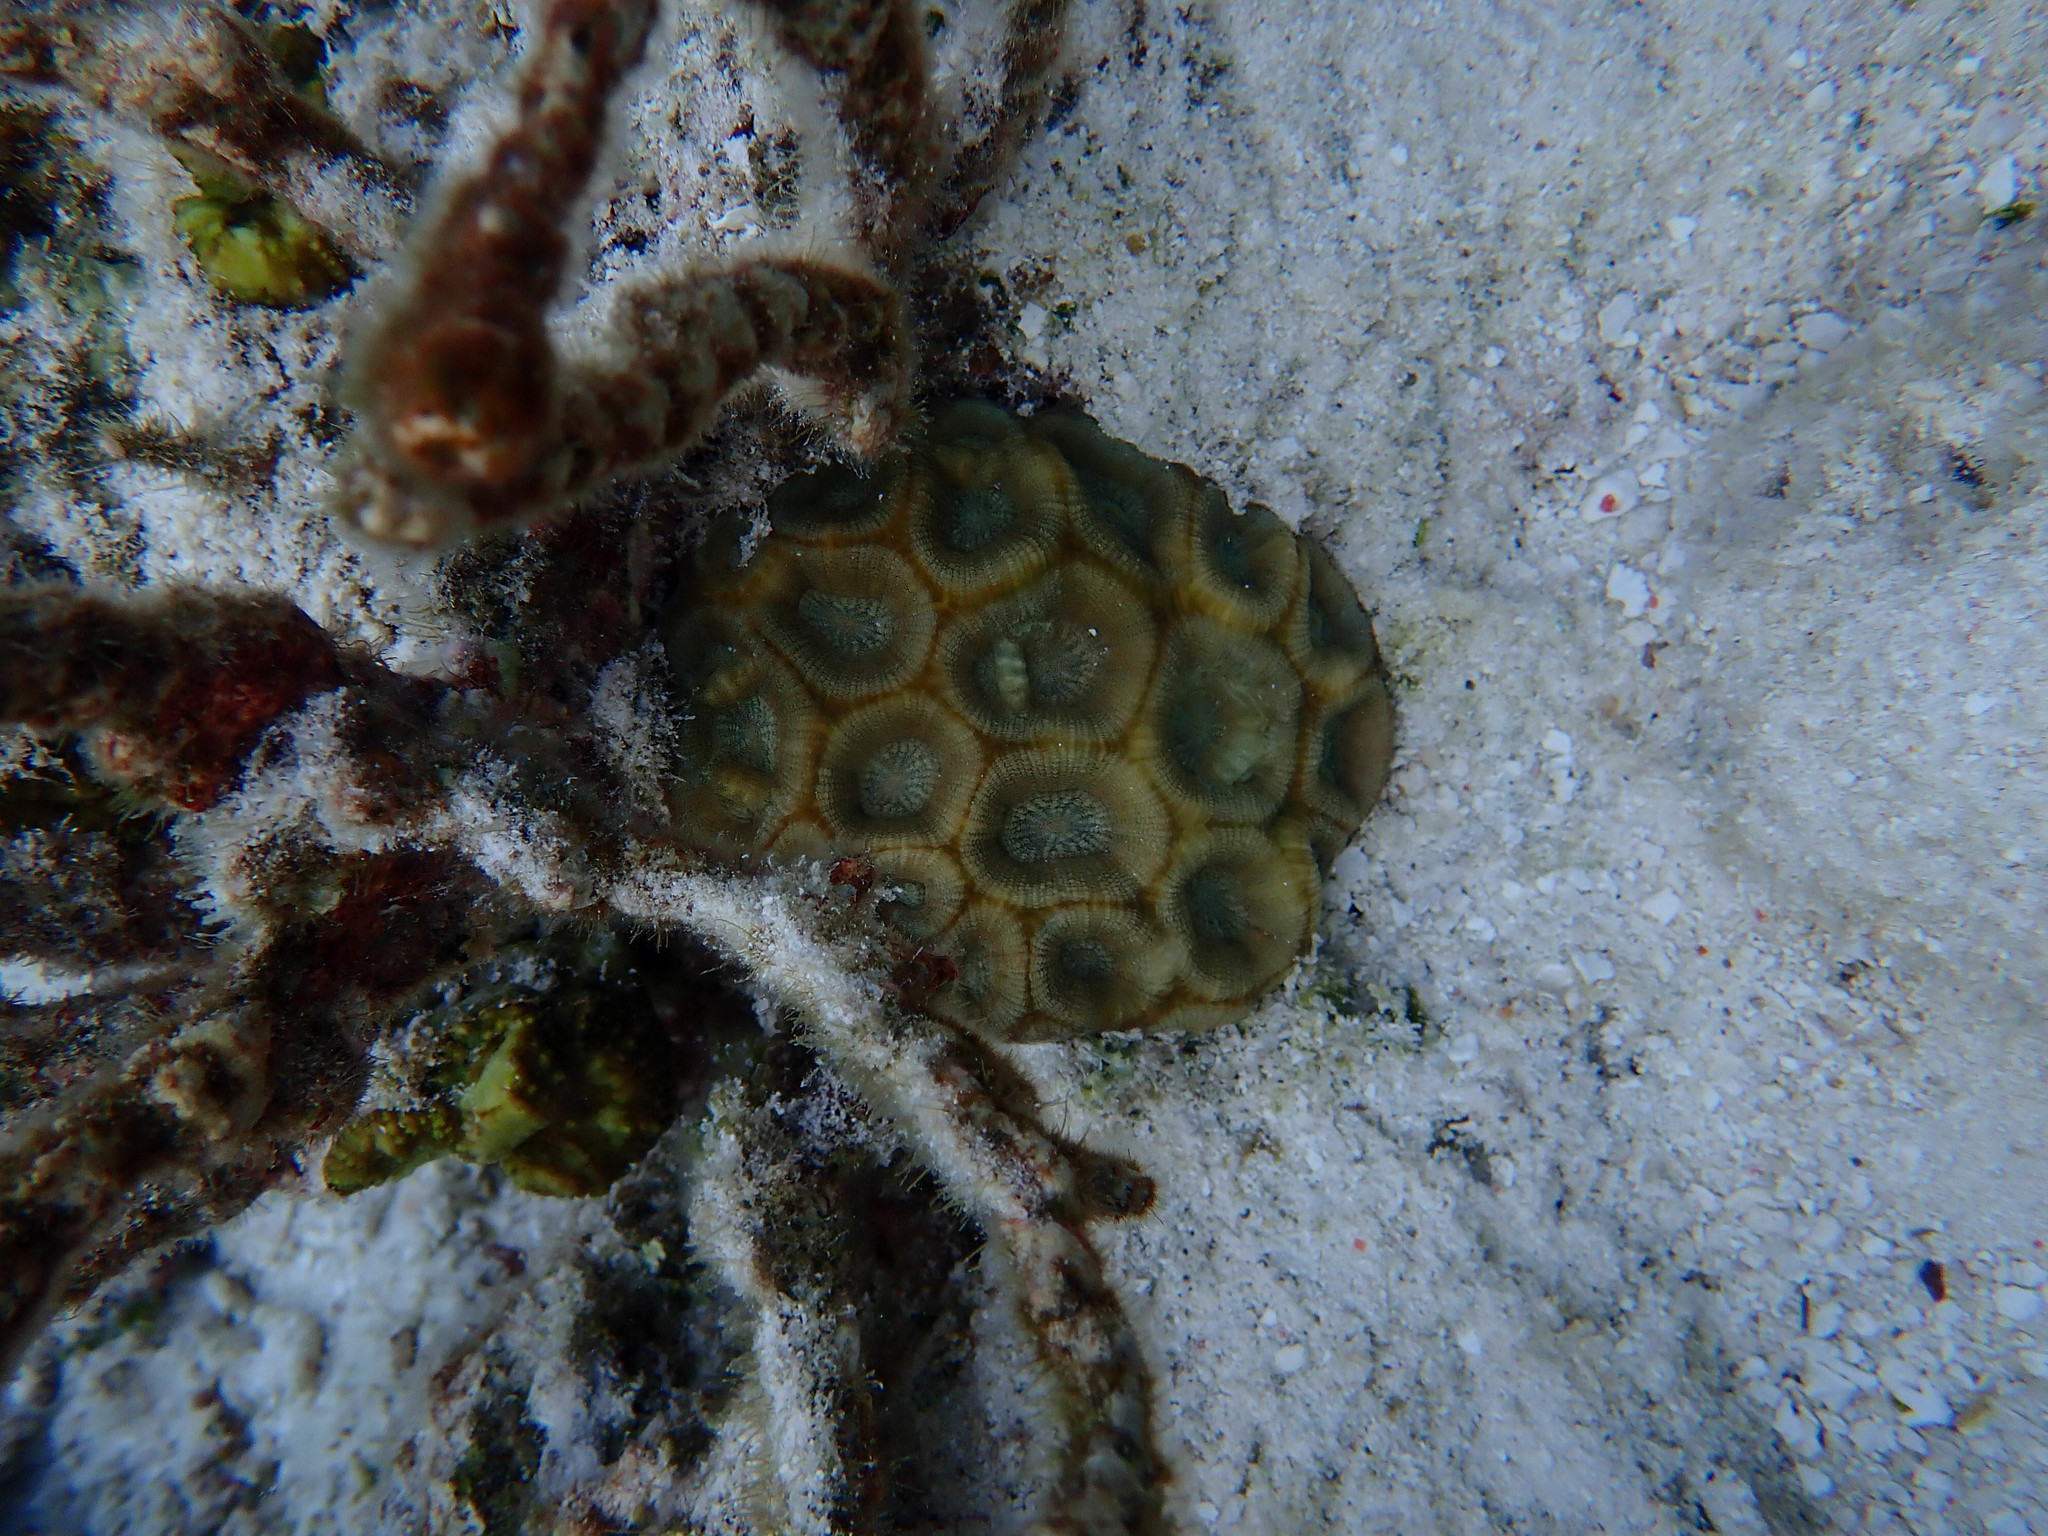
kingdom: Animalia
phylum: Cnidaria
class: Anthozoa
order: Scleractinia
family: Merulinidae
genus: Favites
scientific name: Favites rotundata
